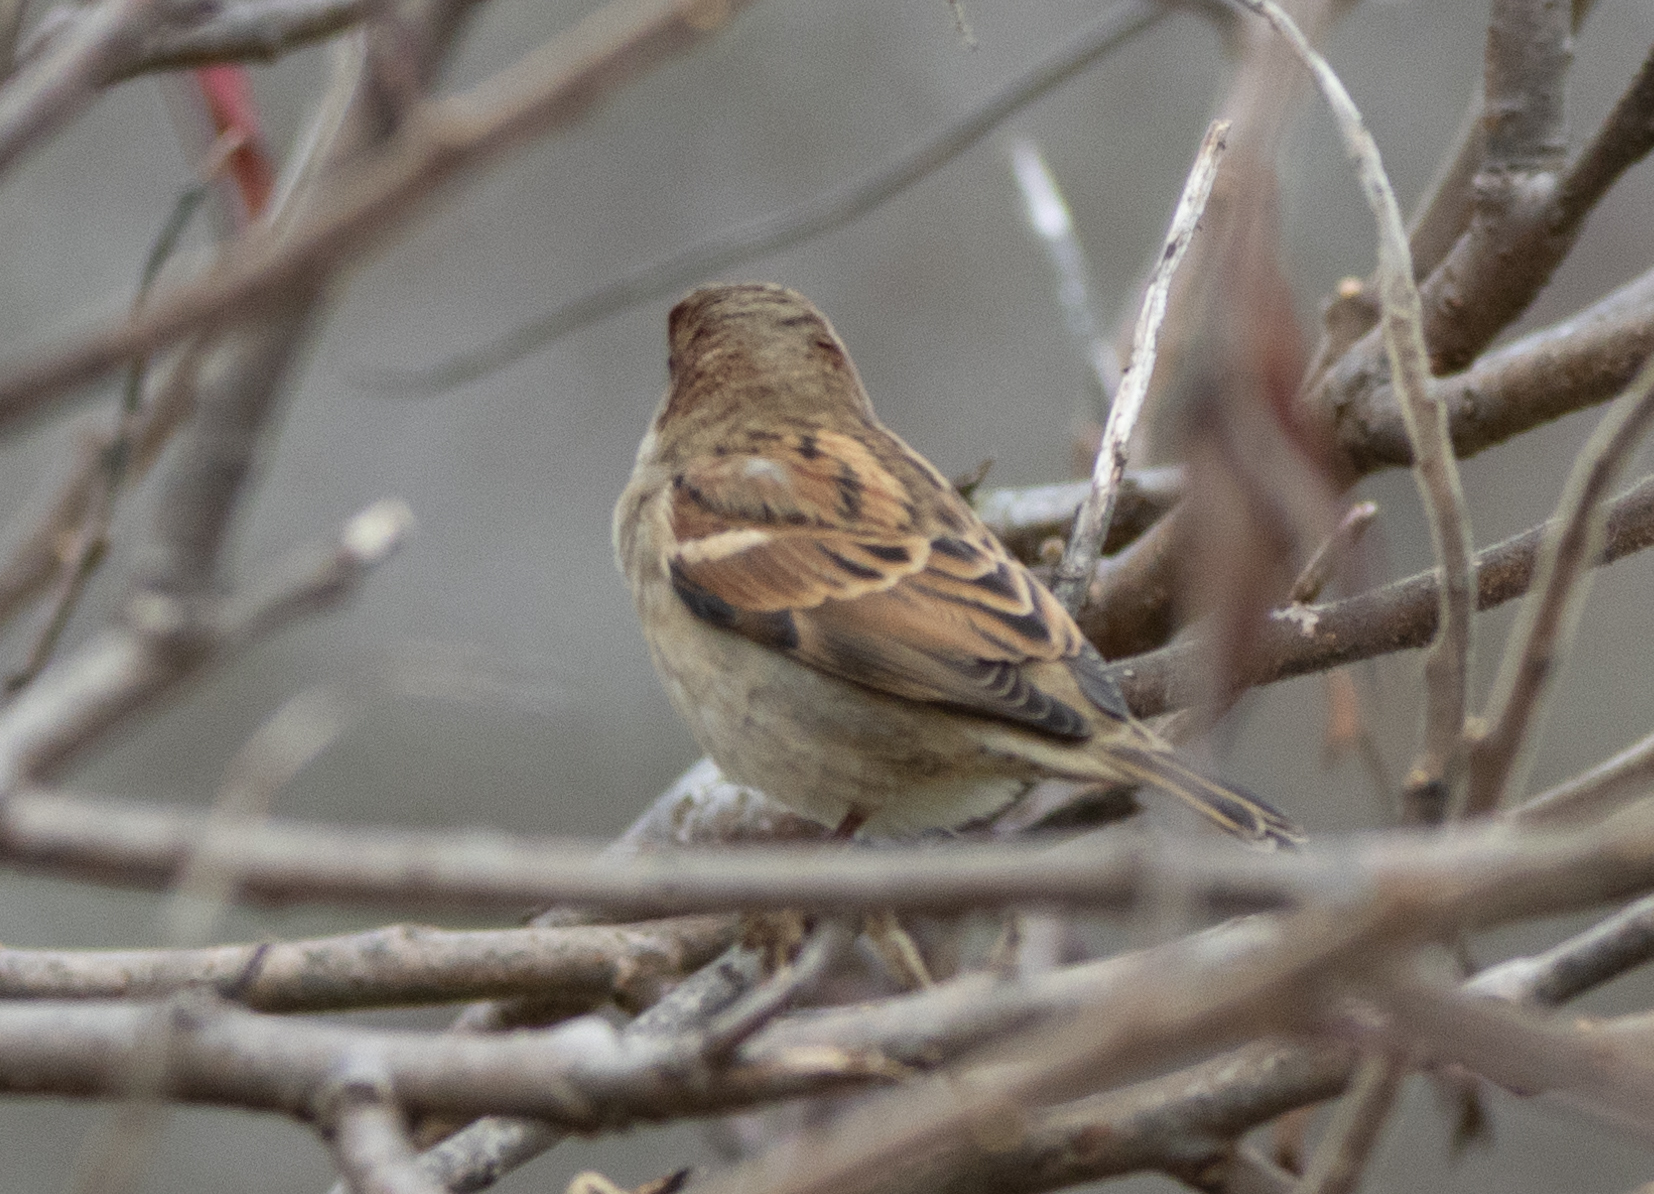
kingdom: Animalia
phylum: Chordata
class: Aves
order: Passeriformes
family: Passeridae
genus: Passer
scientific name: Passer domesticus
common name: House sparrow
